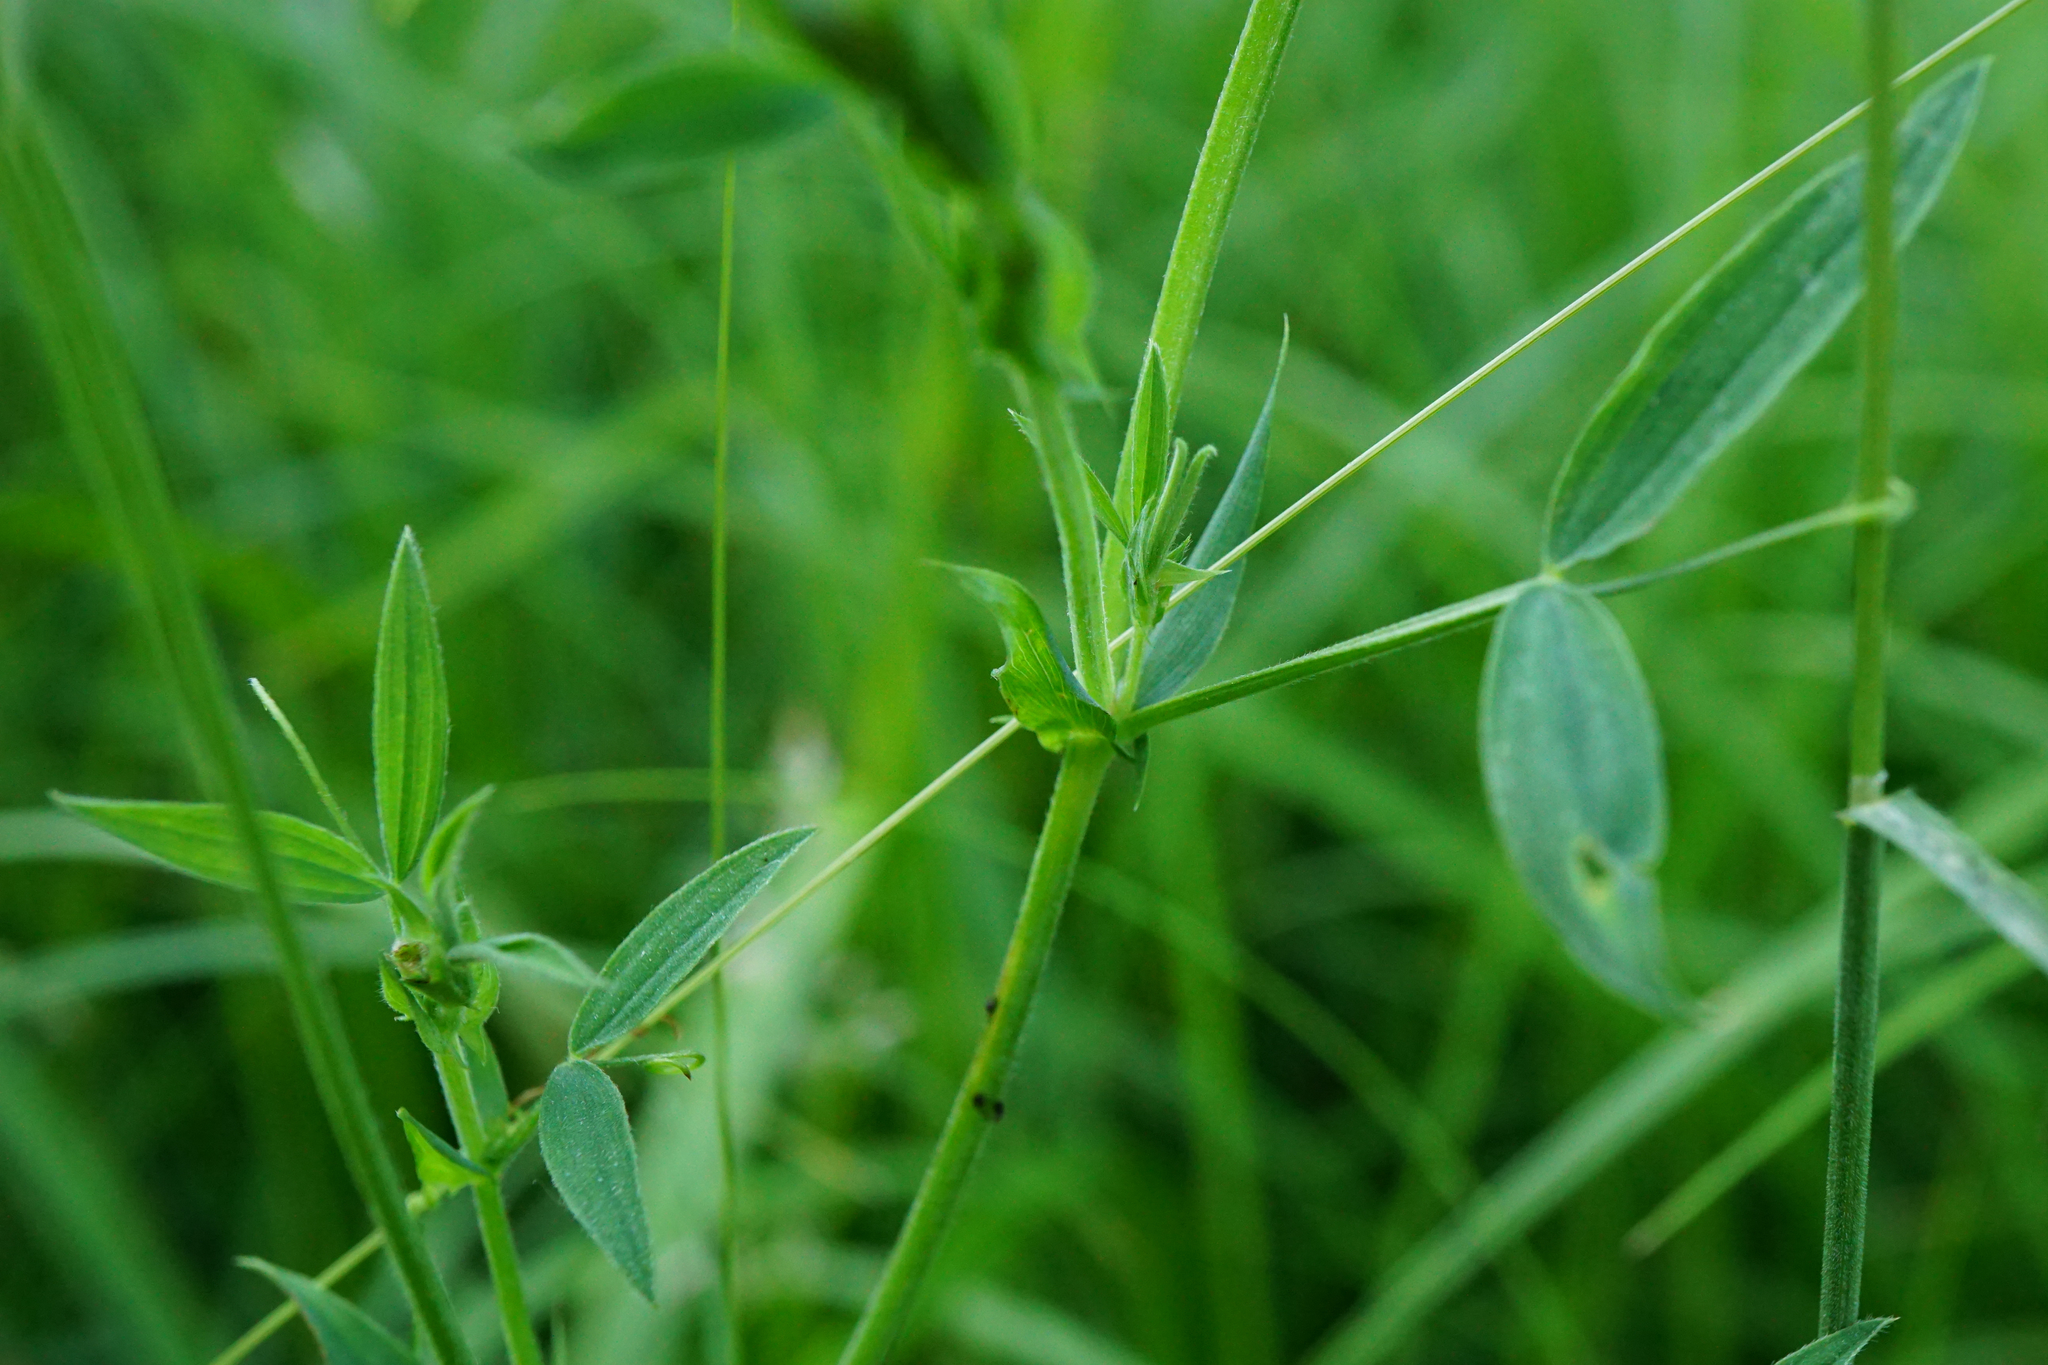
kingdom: Plantae
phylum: Tracheophyta
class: Magnoliopsida
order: Fabales
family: Fabaceae
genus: Lathyrus
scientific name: Lathyrus pratensis
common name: Meadow vetchling
